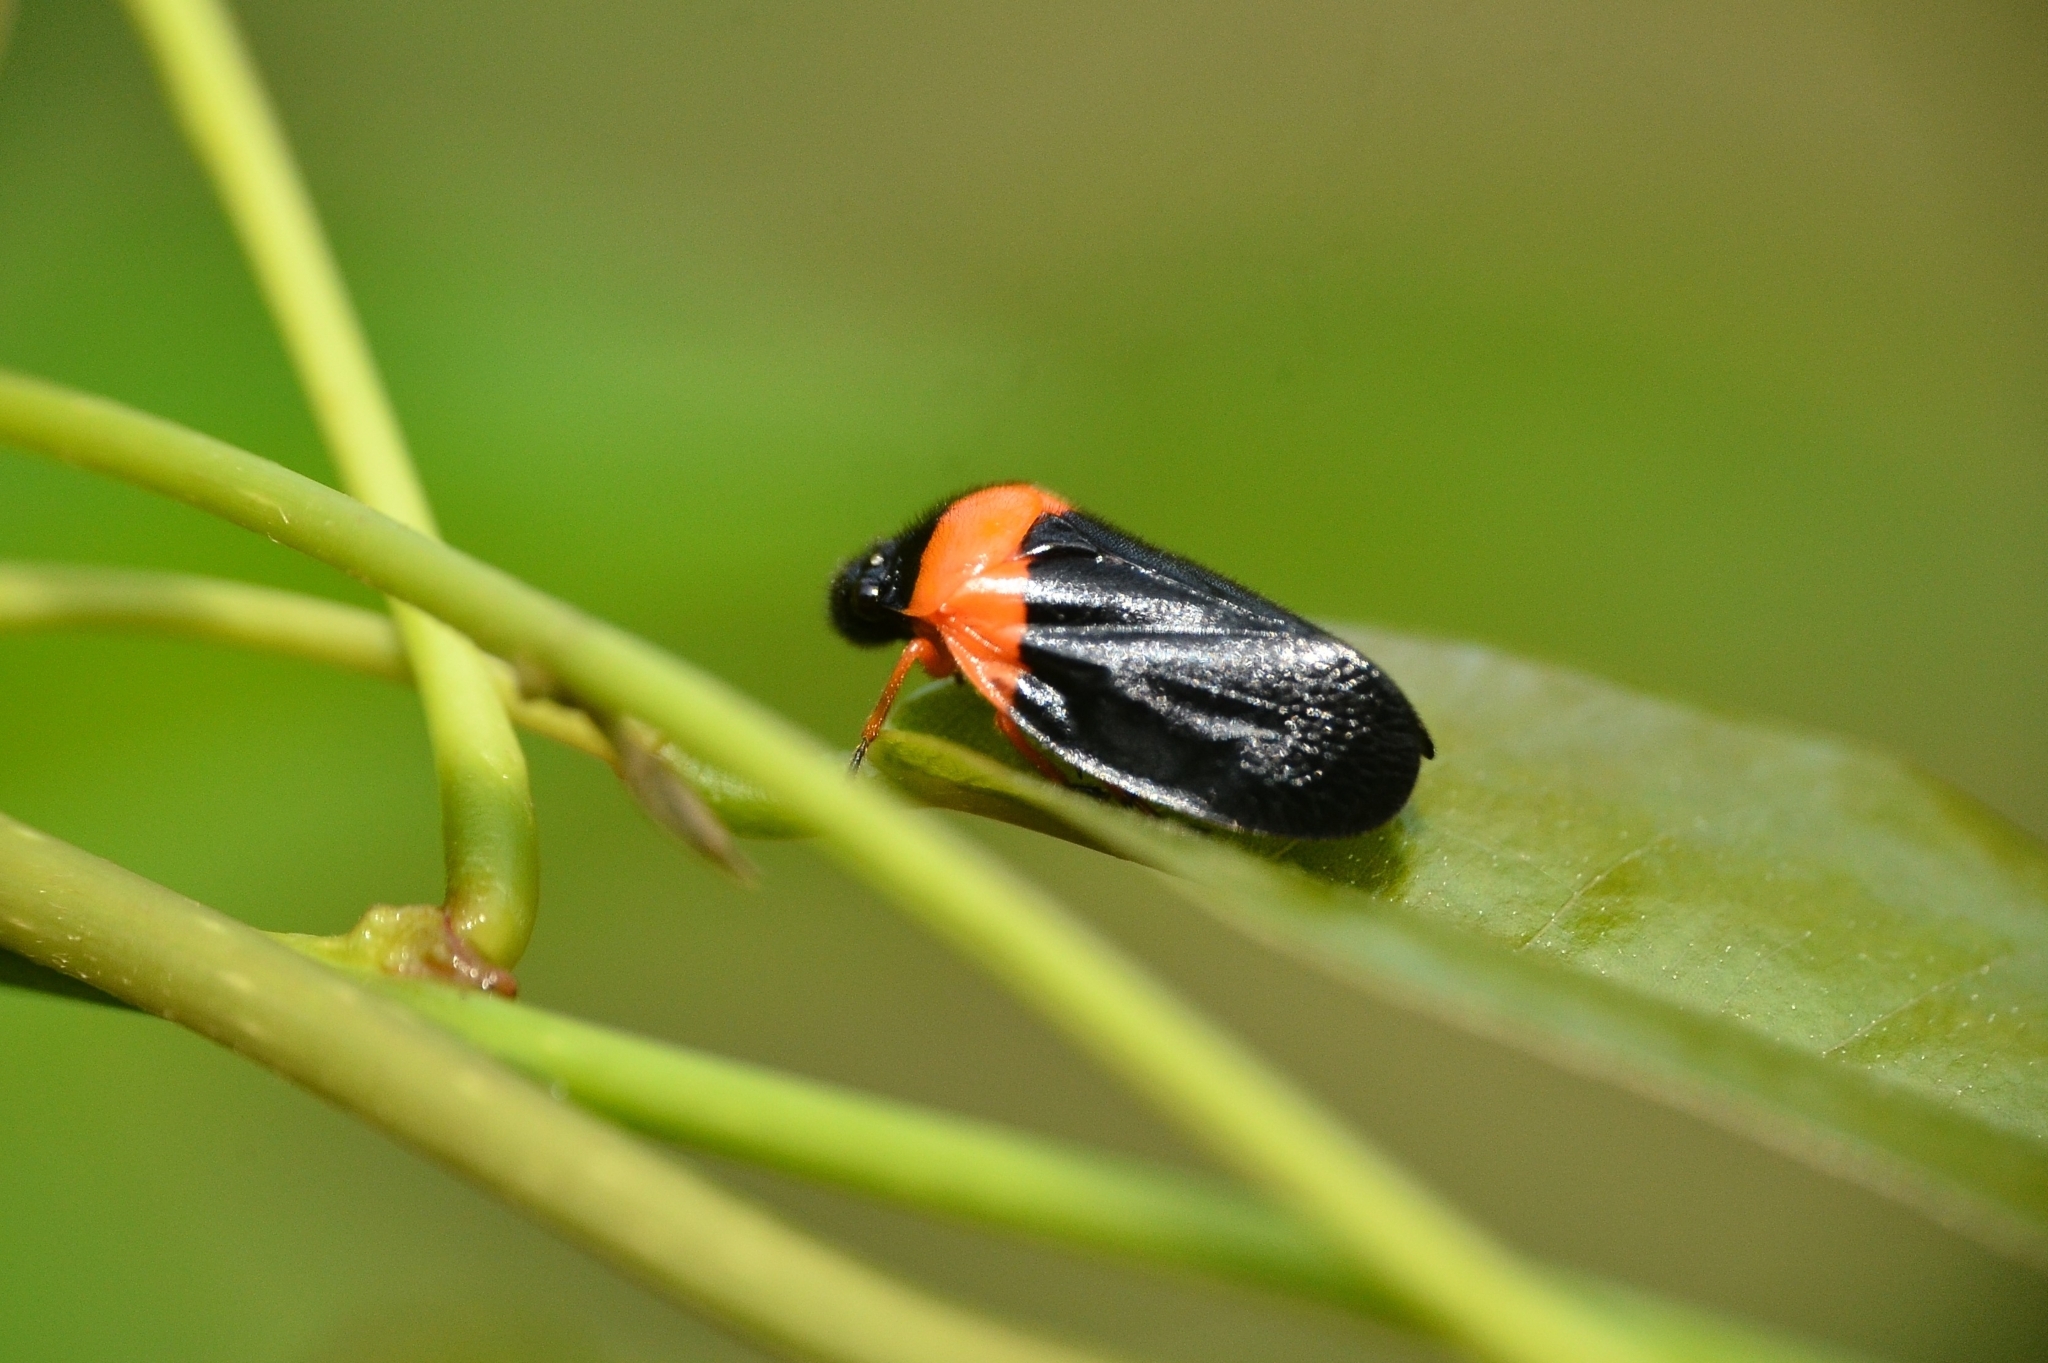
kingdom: Animalia
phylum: Arthropoda
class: Insecta
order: Hemiptera
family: Cercopidae
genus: Phymatostetha
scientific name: Phymatostetha deschampsi
